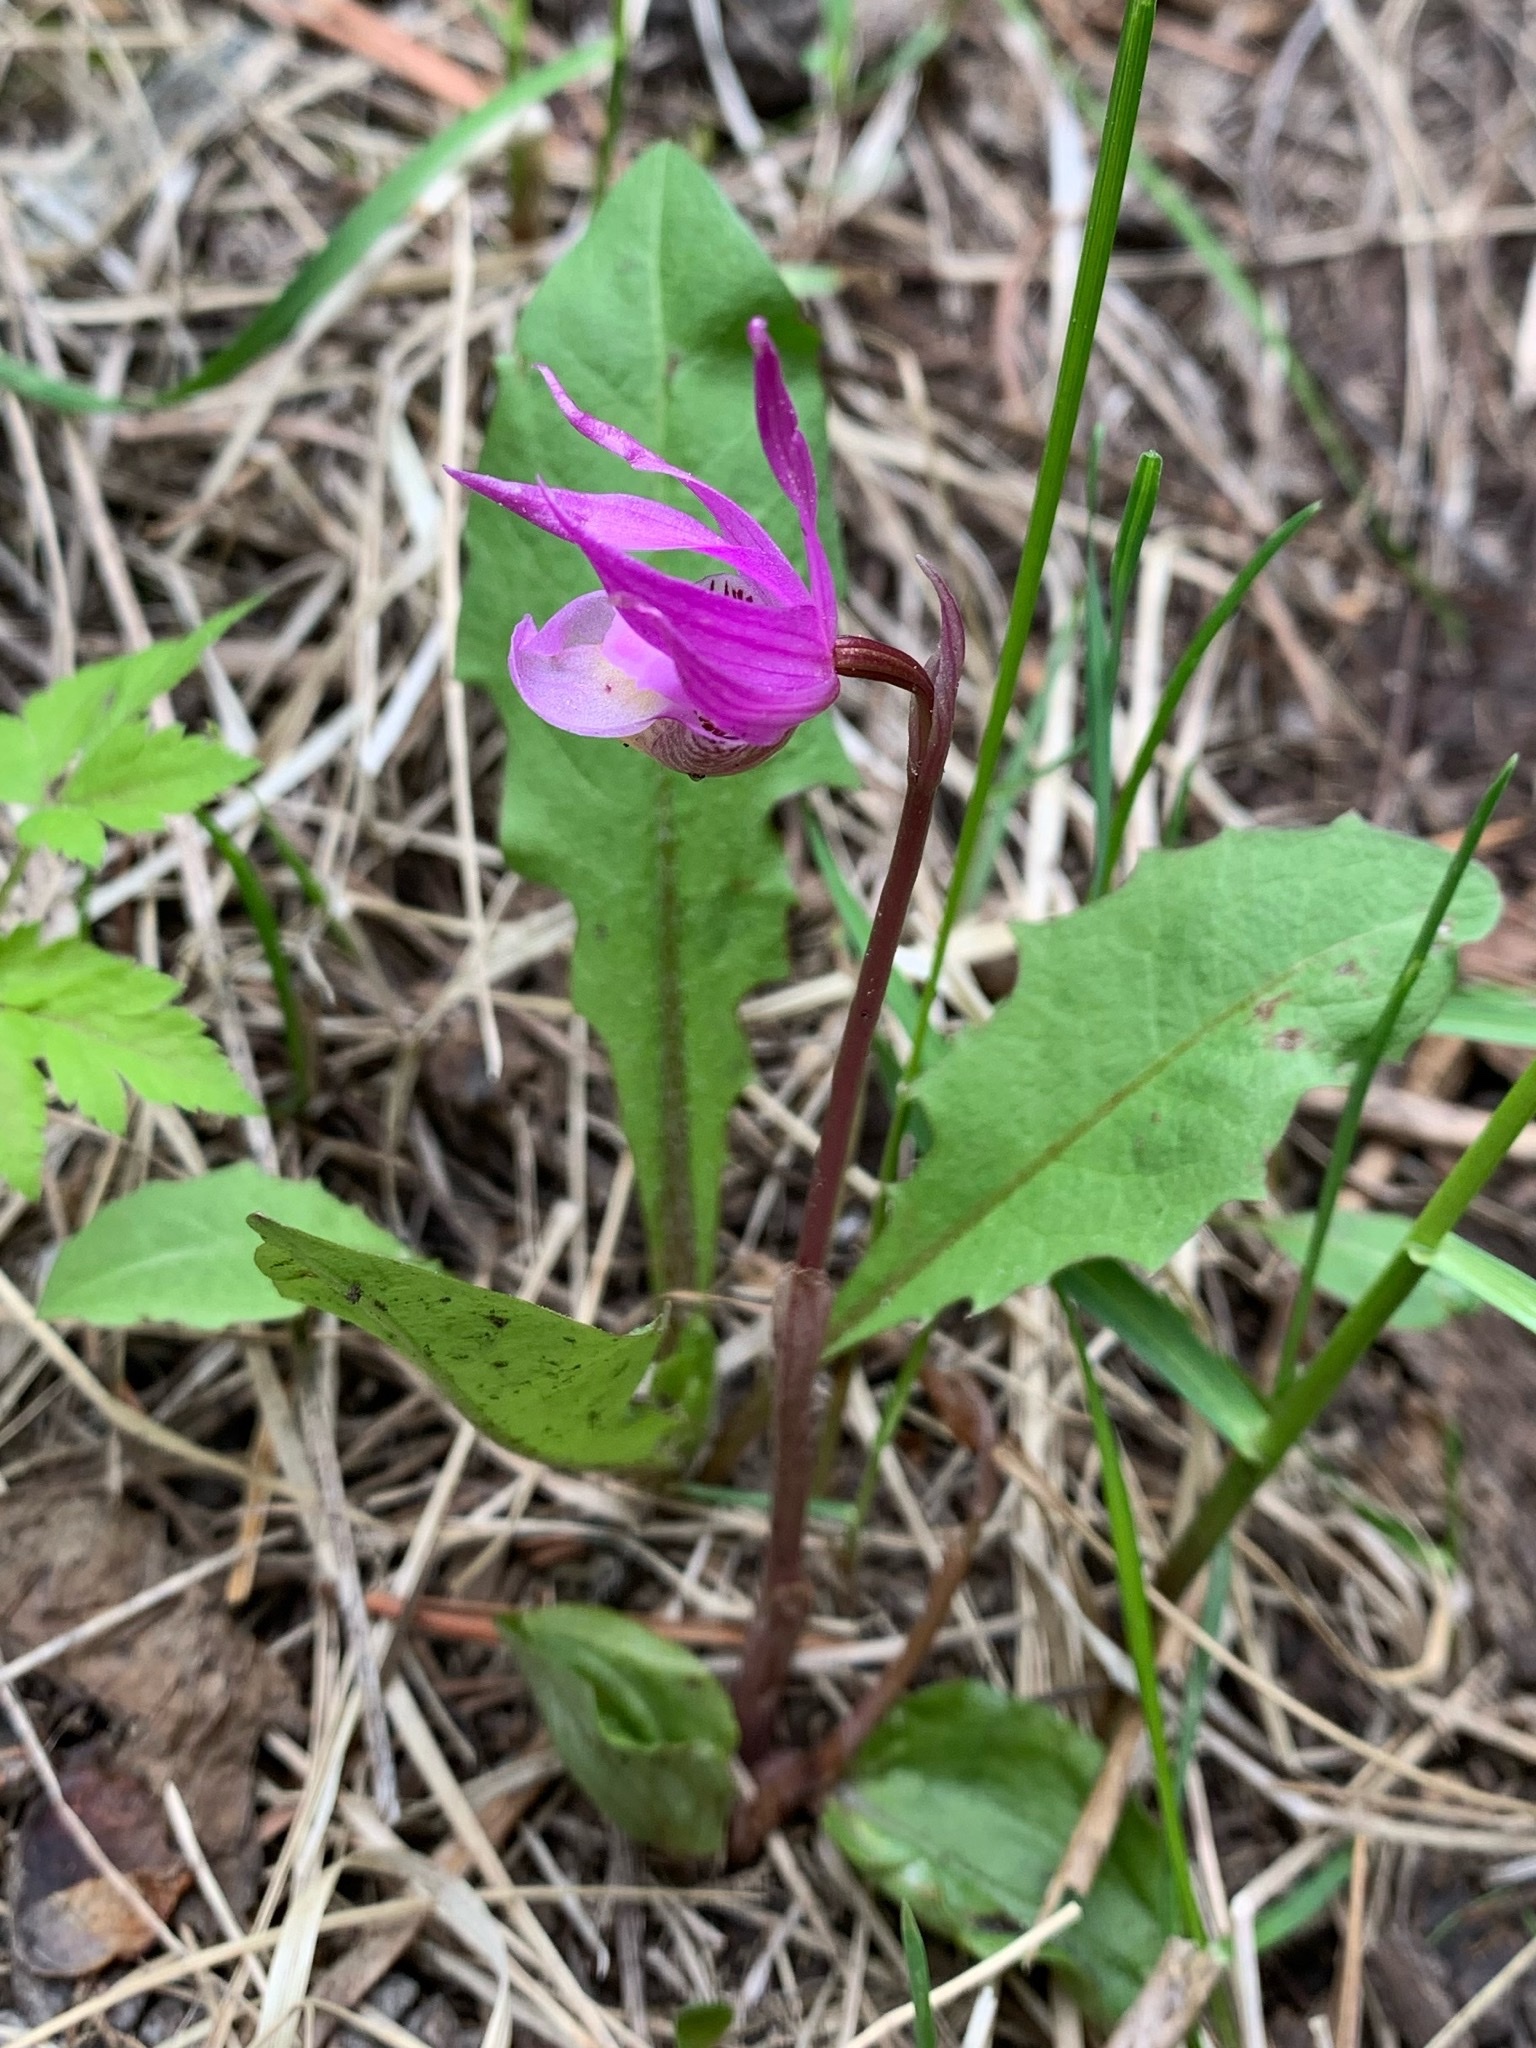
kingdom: Plantae
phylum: Tracheophyta
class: Liliopsida
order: Asparagales
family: Orchidaceae
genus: Calypso
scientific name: Calypso bulbosa
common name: Calypso
